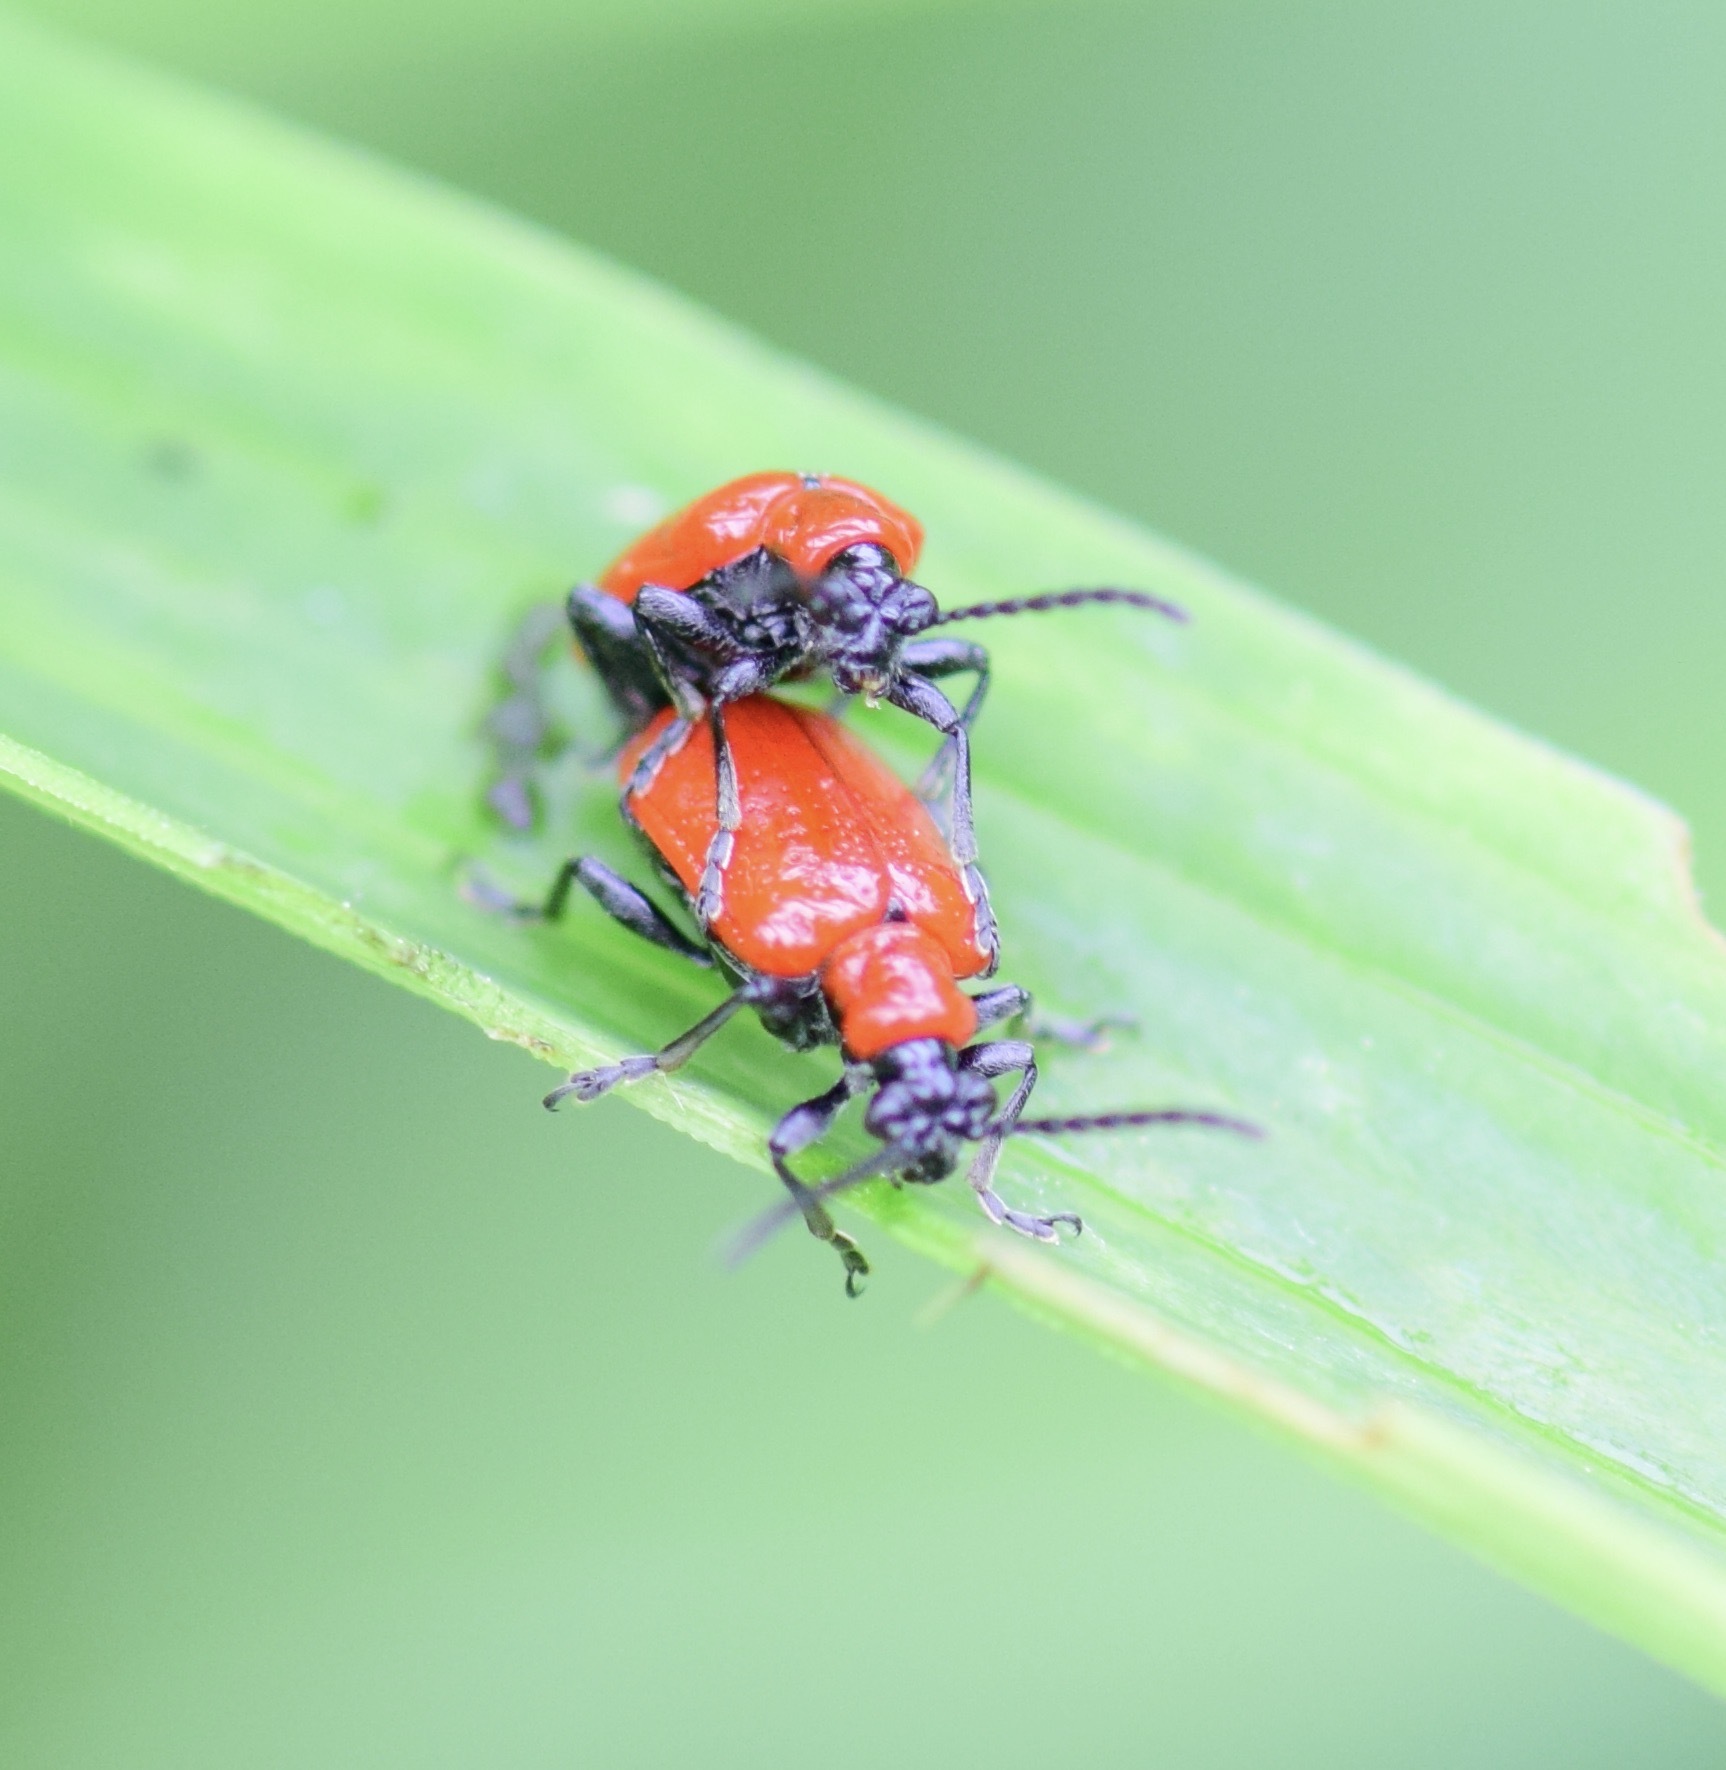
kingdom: Animalia
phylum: Arthropoda
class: Insecta
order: Coleoptera
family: Chrysomelidae
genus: Lilioceris
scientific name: Lilioceris lilii
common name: Lily beetle
